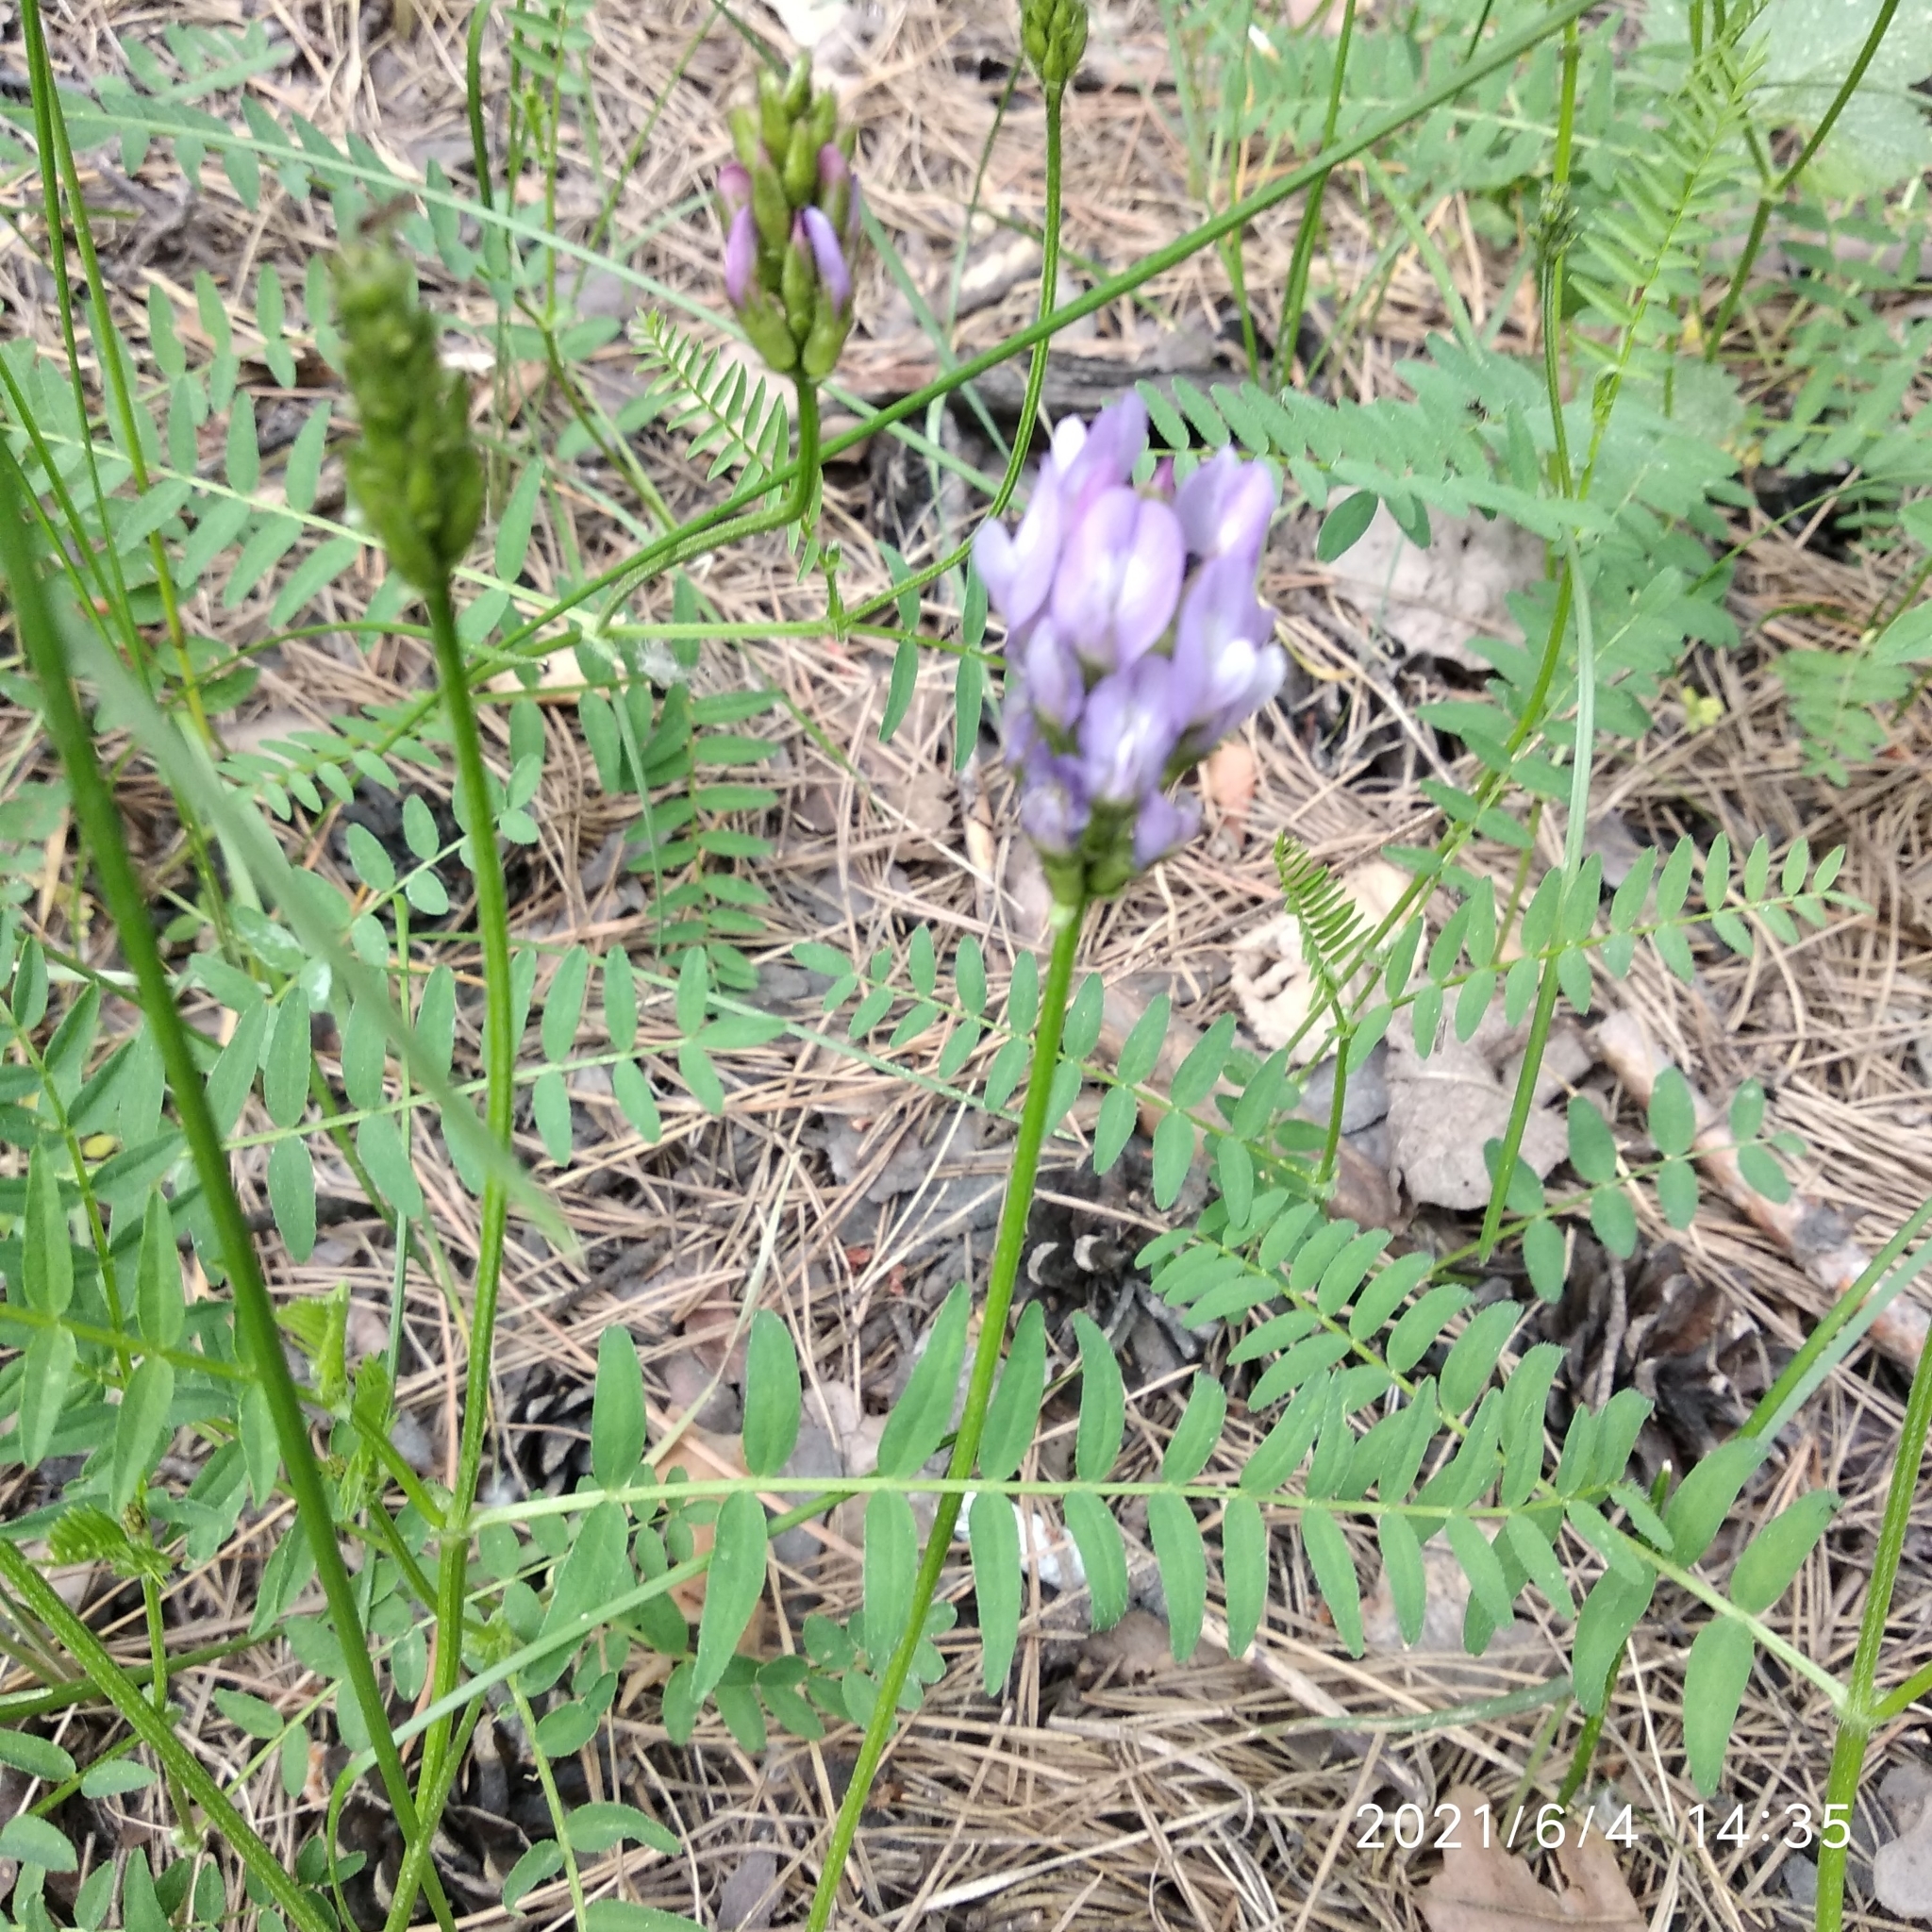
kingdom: Plantae
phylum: Tracheophyta
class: Magnoliopsida
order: Fabales
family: Fabaceae
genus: Astragalus
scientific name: Astragalus danicus
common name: Purple milk-vetch
